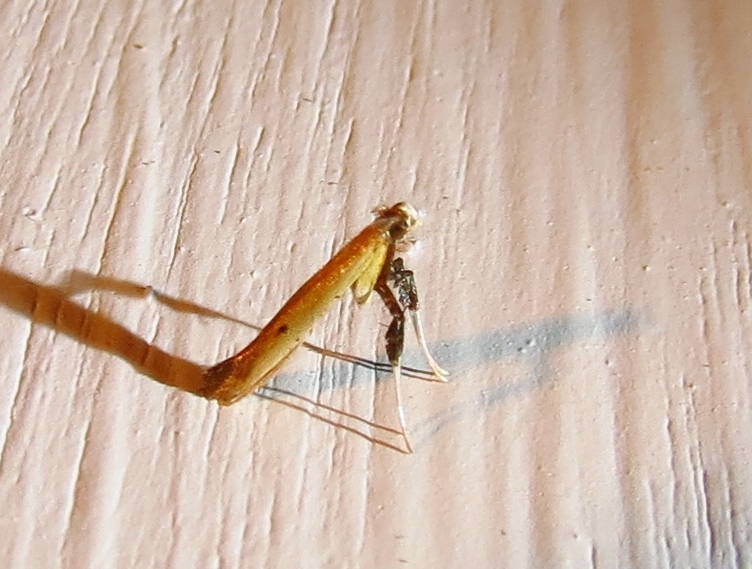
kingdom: Animalia
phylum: Arthropoda
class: Insecta
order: Lepidoptera
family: Gracillariidae
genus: Caloptilia
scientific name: Caloptilia violacella
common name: Tick-trefoil caloptilia moth
